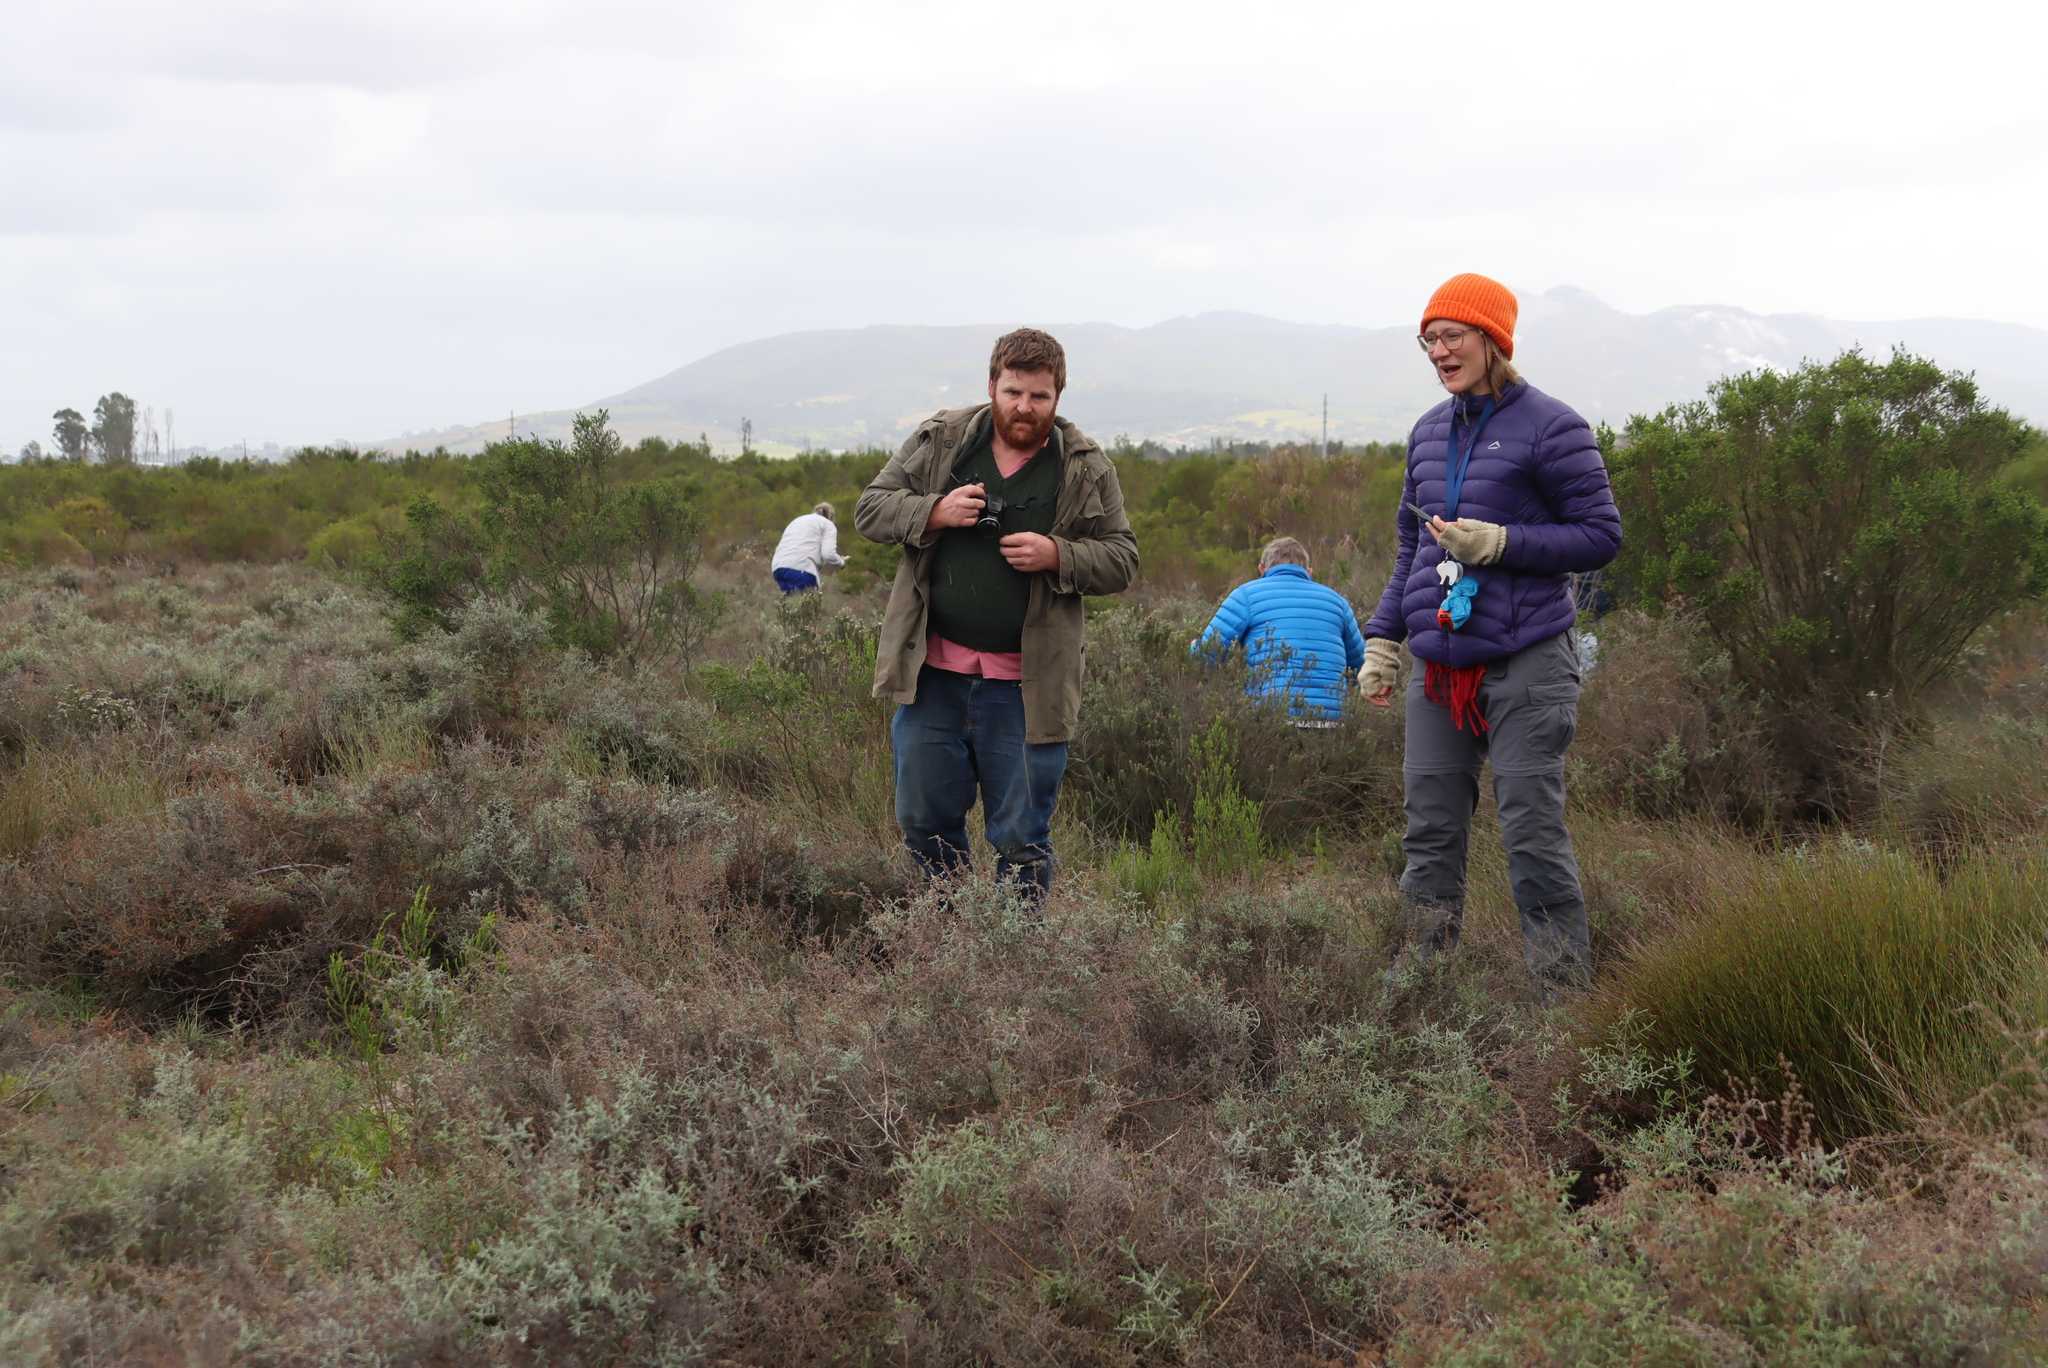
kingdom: Plantae
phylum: Tracheophyta
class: Magnoliopsida
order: Asterales
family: Asteraceae
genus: Seriphium
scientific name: Seriphium plumosum
